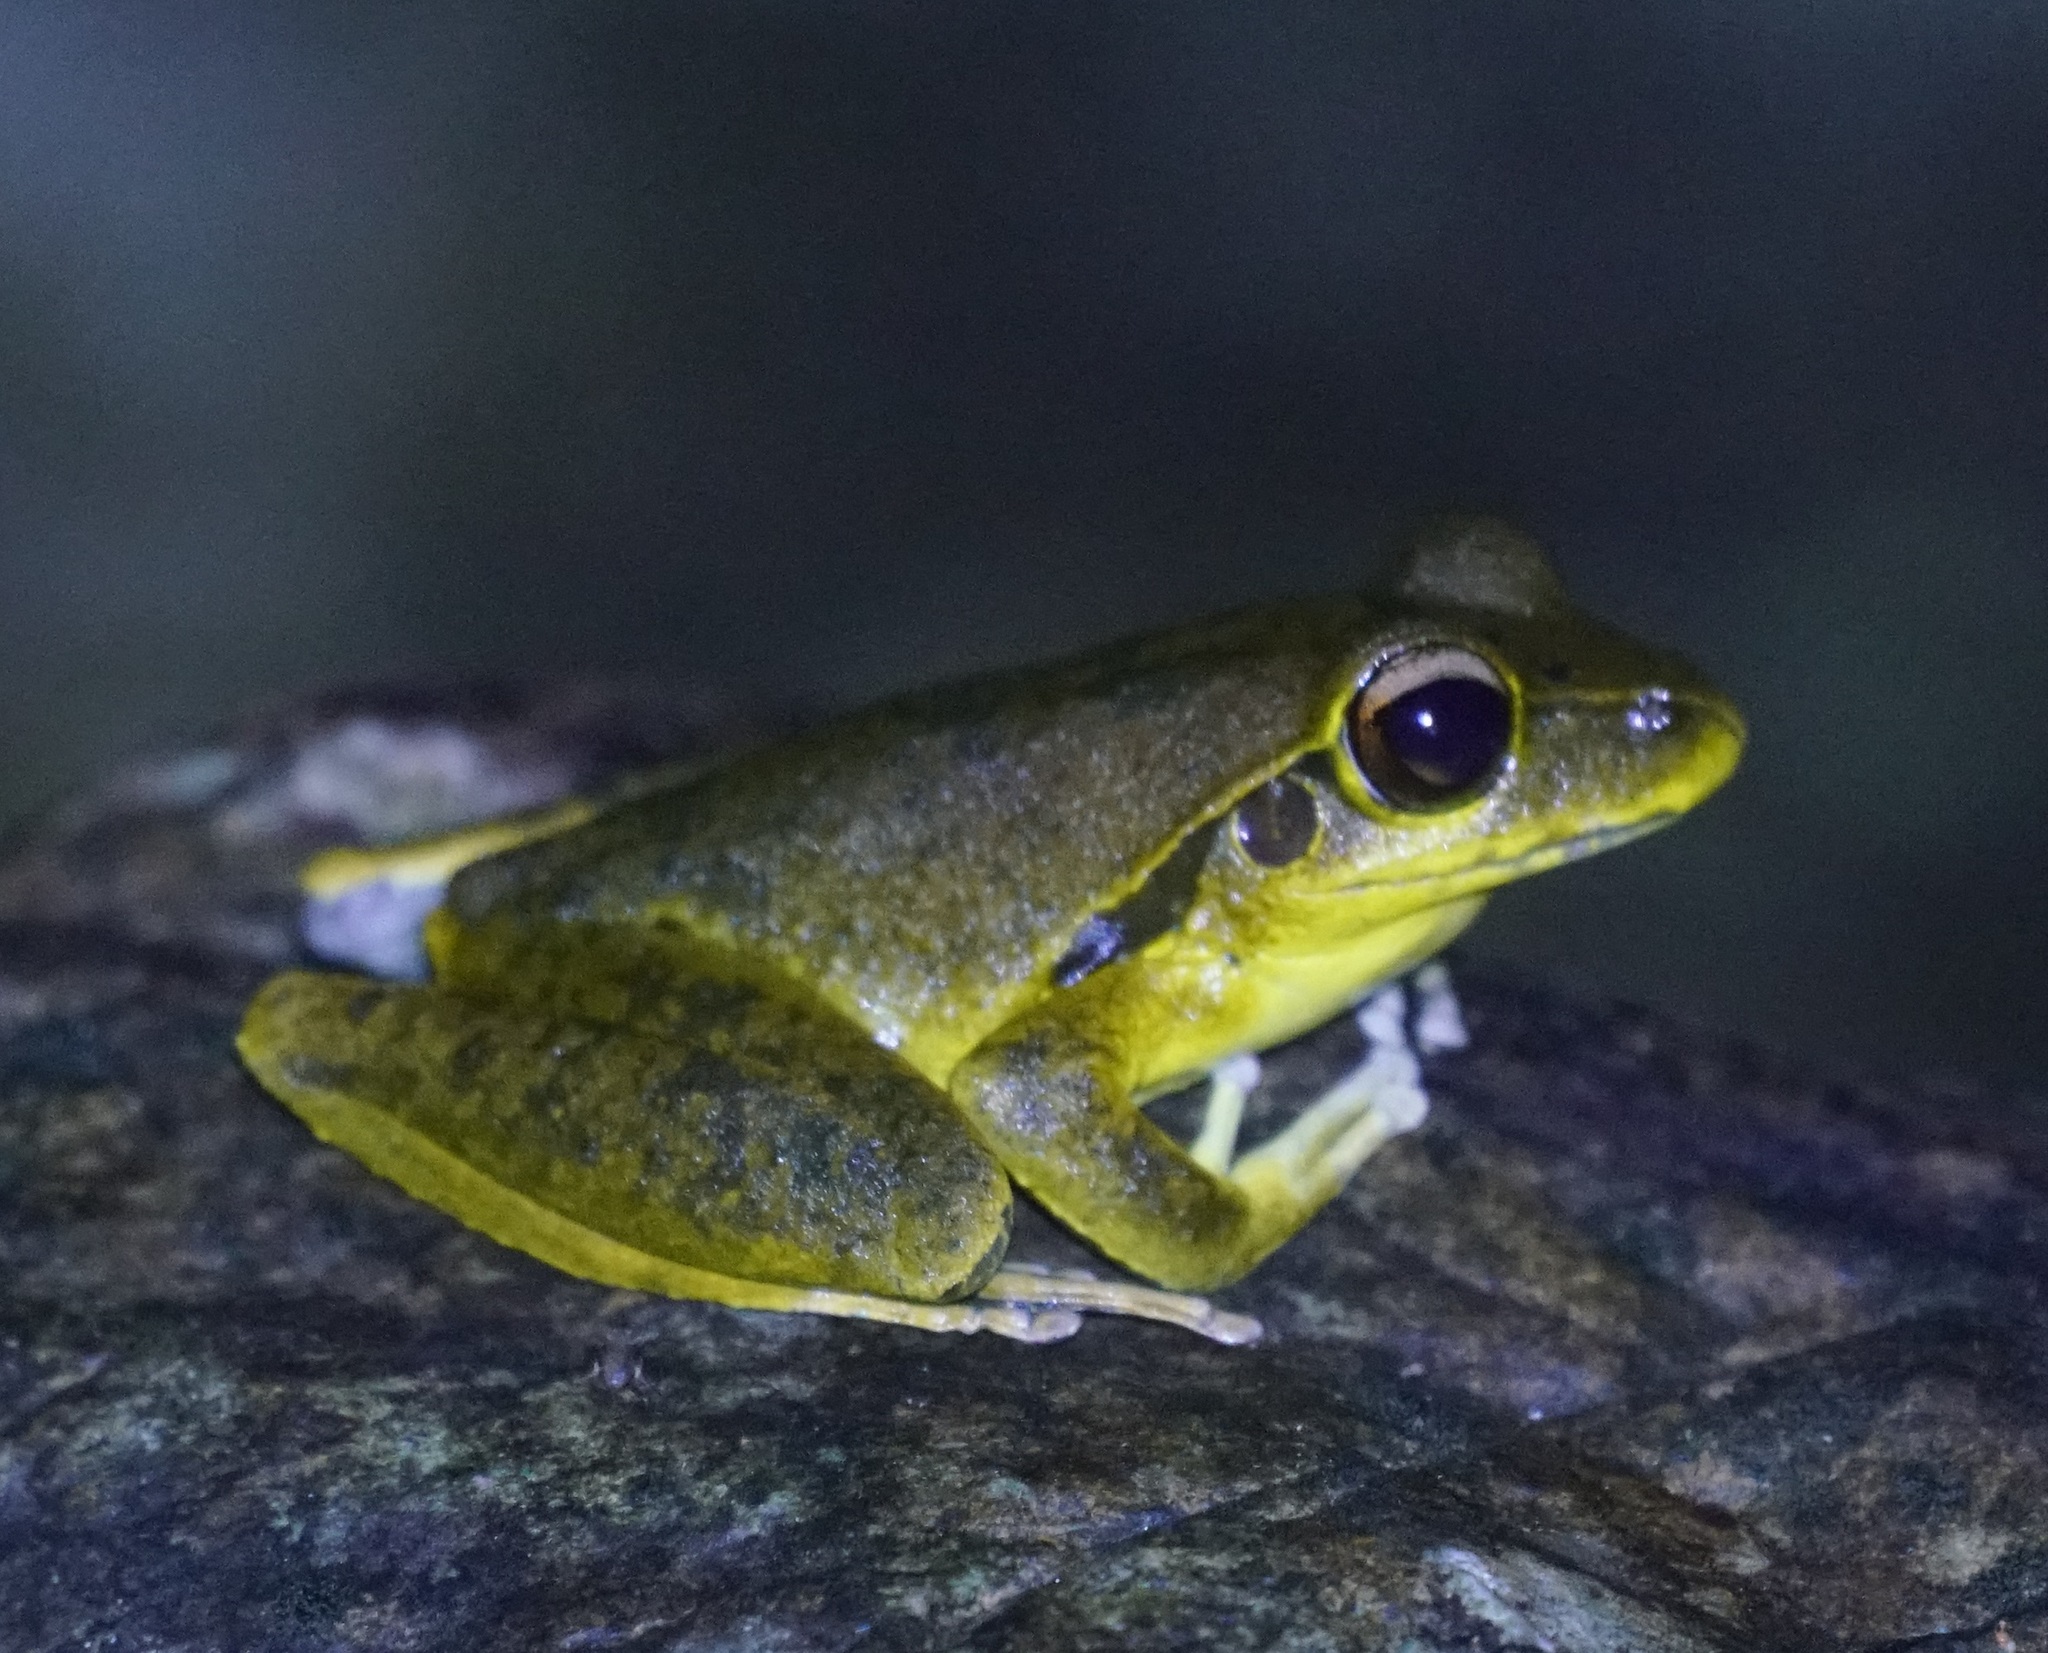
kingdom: Animalia
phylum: Chordata
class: Amphibia
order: Anura
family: Hylidae
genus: Ranoidea
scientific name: Ranoidea
